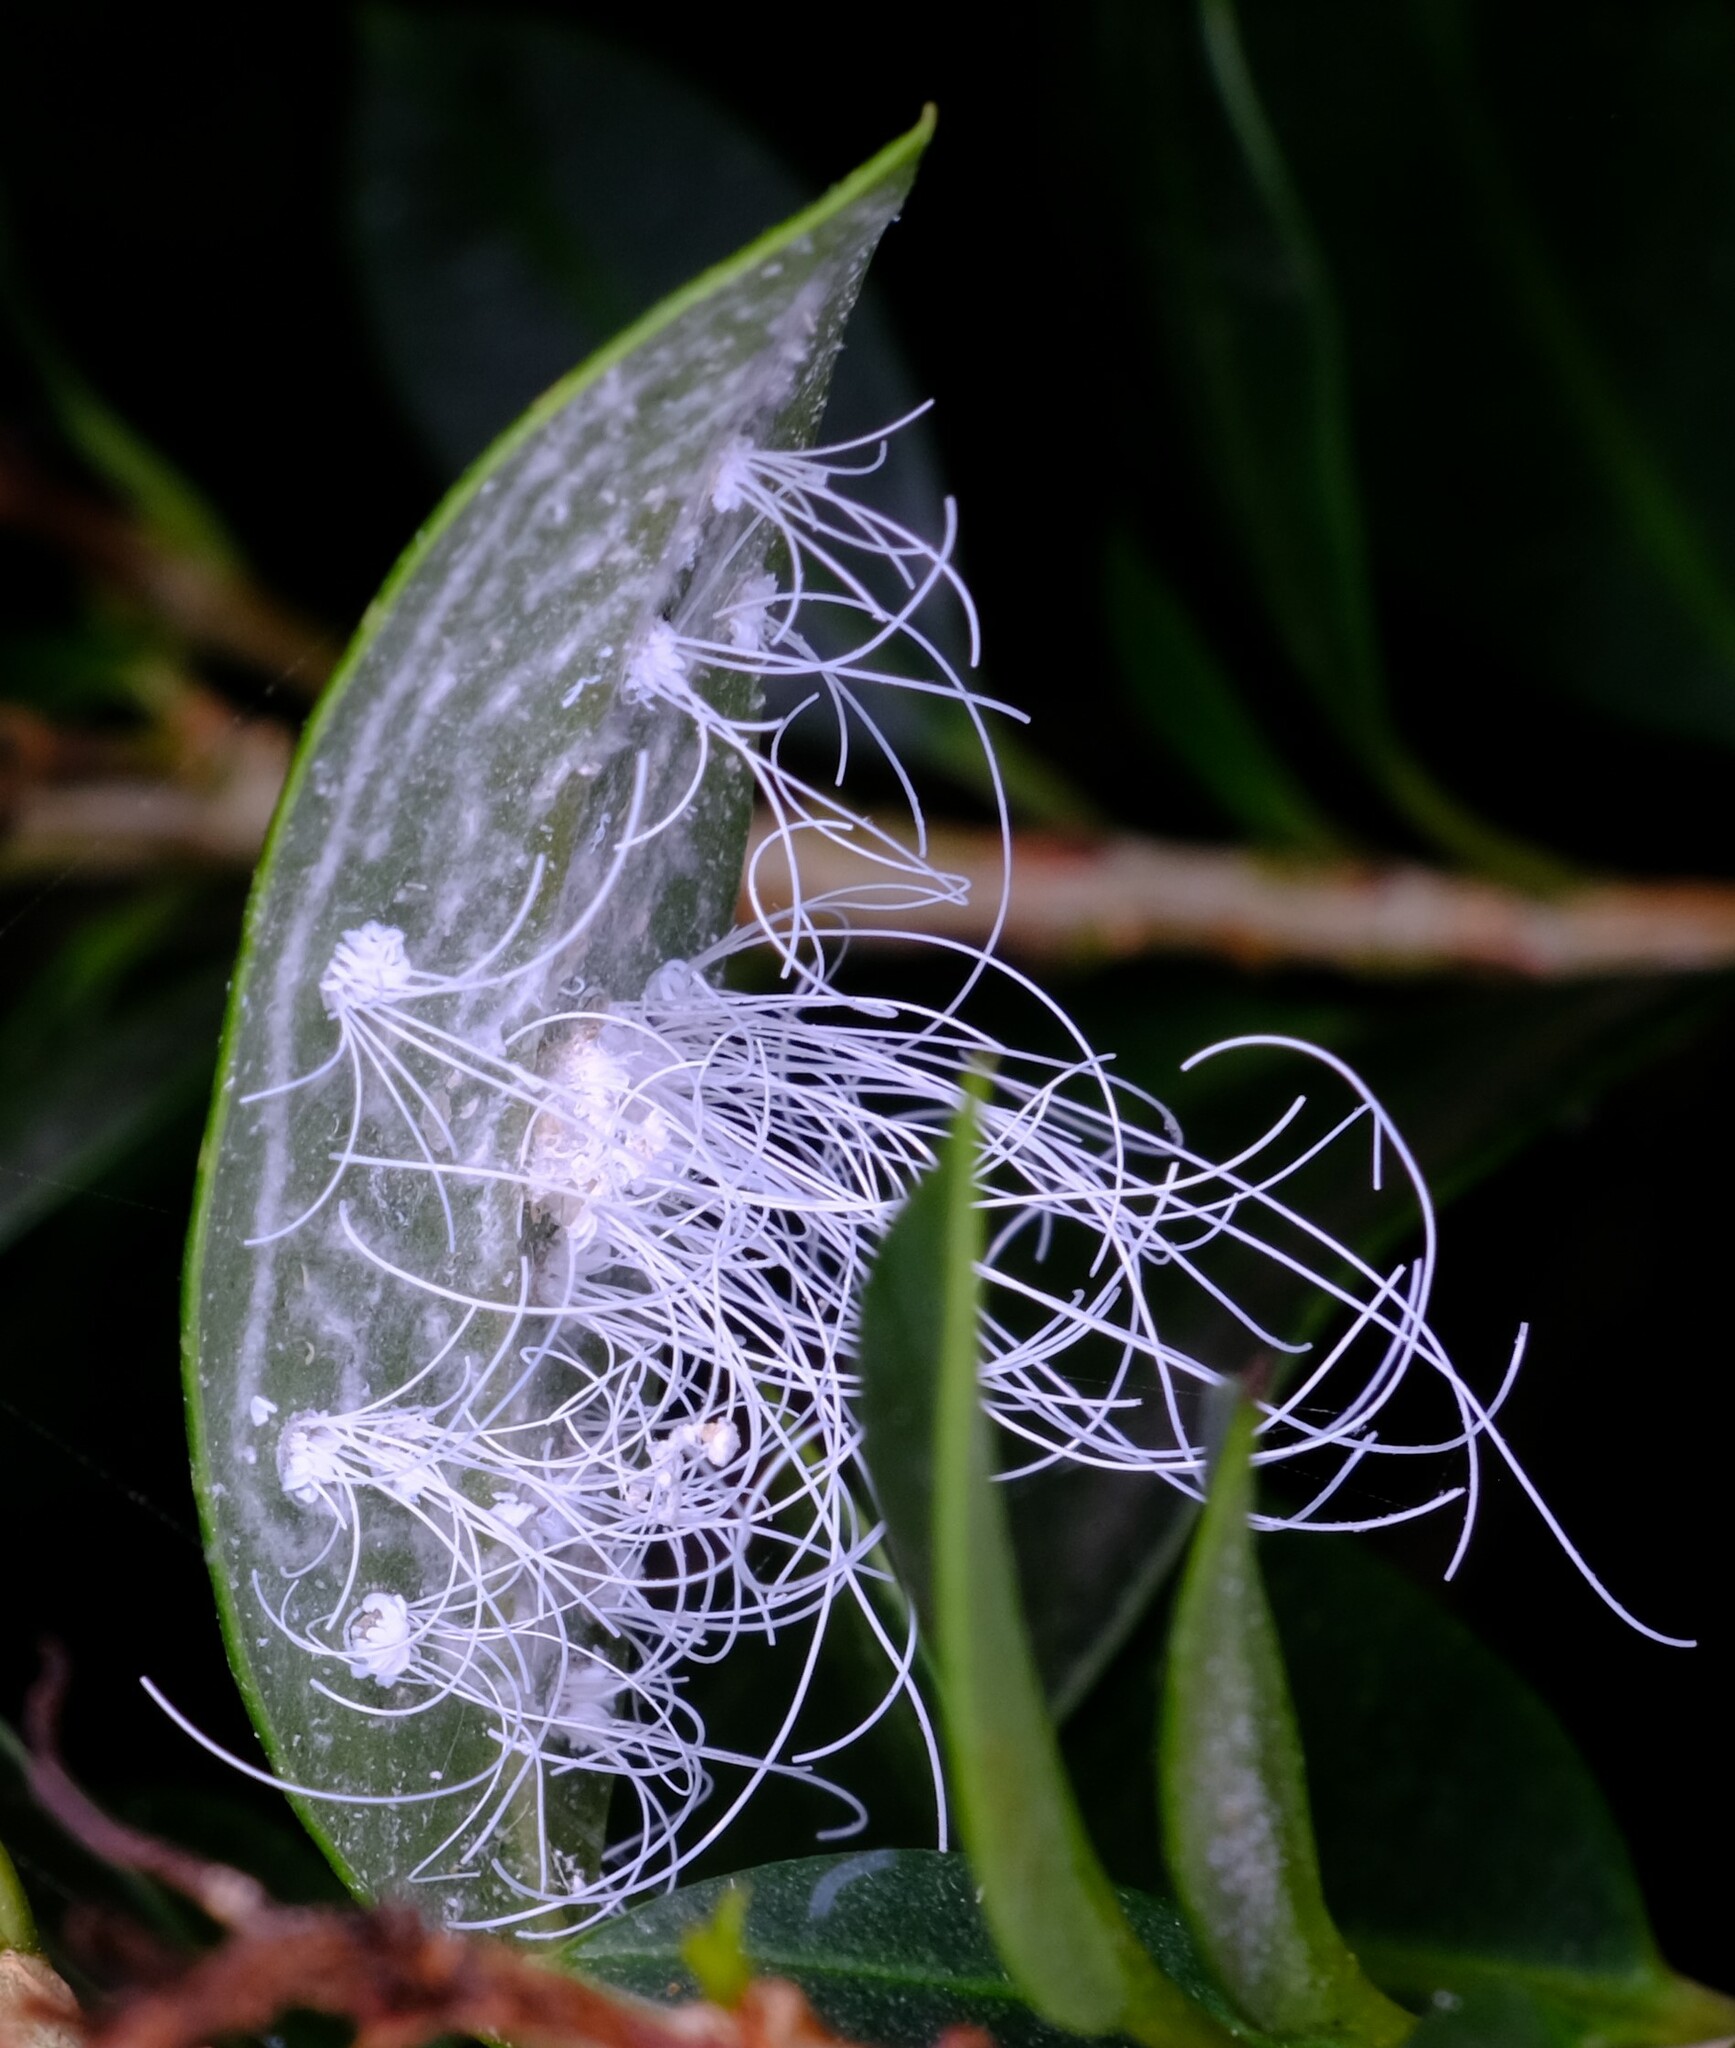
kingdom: Animalia
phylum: Arthropoda
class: Insecta
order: Hemiptera
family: Aleyrodidae
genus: Aleuroctarthrus
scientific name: Aleuroctarthrus
